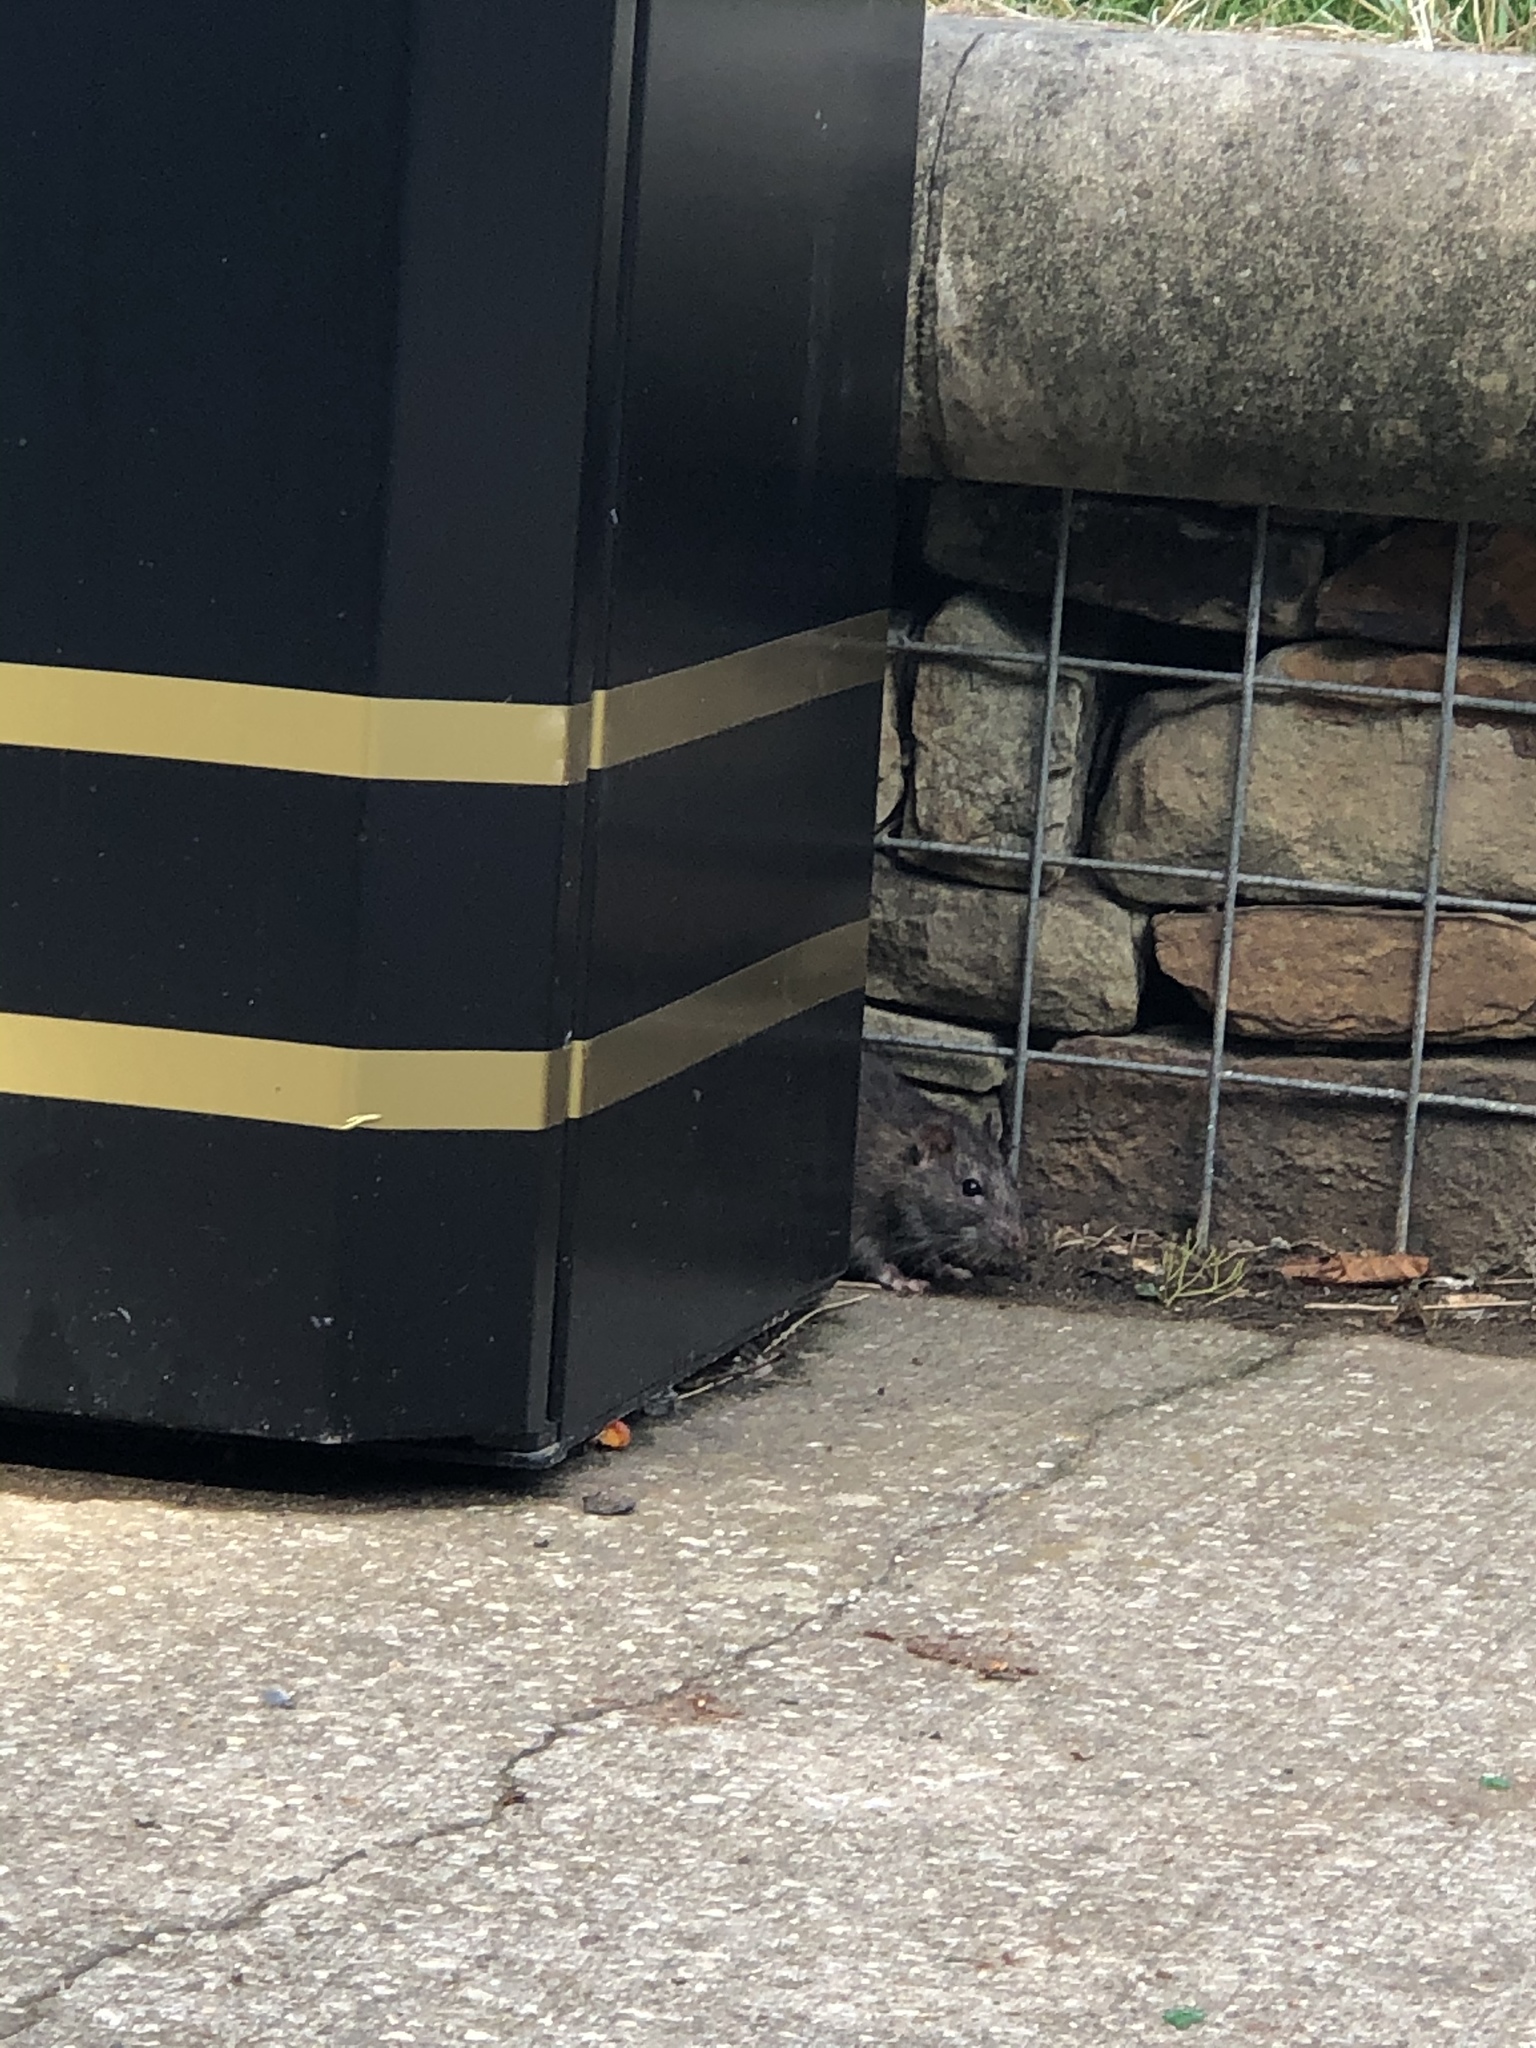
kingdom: Animalia
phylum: Chordata
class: Mammalia
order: Rodentia
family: Muridae
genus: Rattus
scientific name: Rattus norvegicus
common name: Brown rat
